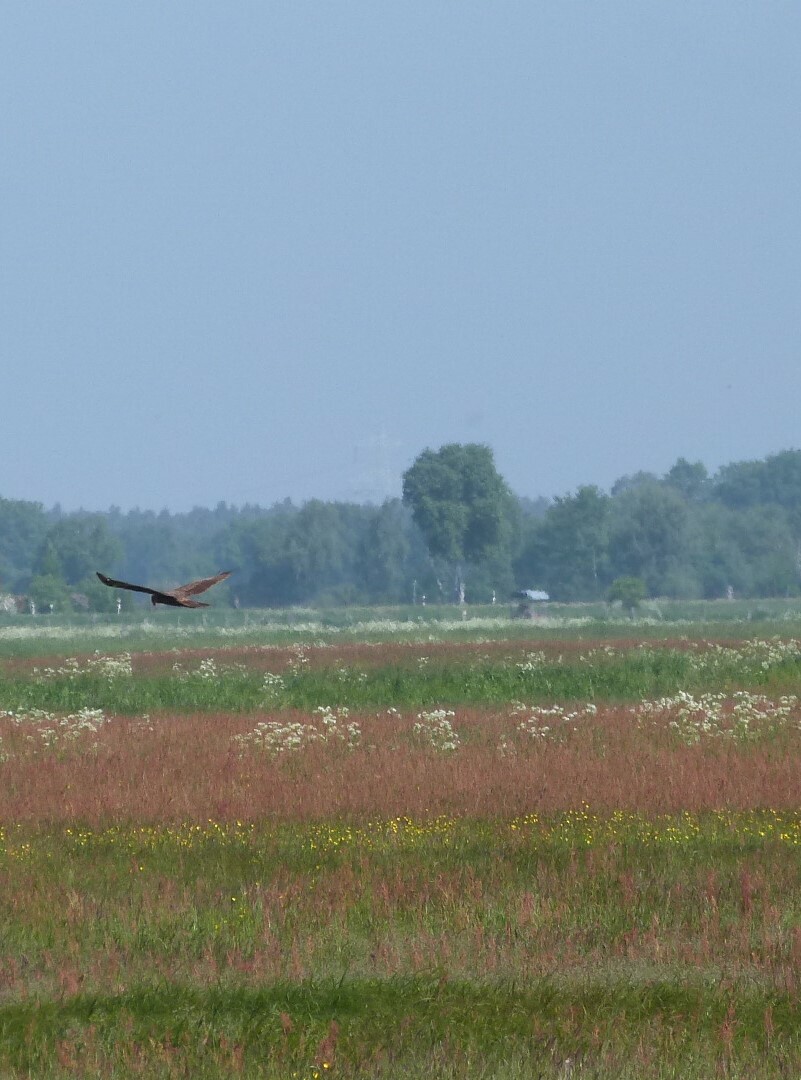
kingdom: Animalia
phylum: Chordata
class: Aves
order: Accipitriformes
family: Accipitridae
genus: Circus
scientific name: Circus aeruginosus
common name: Western marsh harrier
